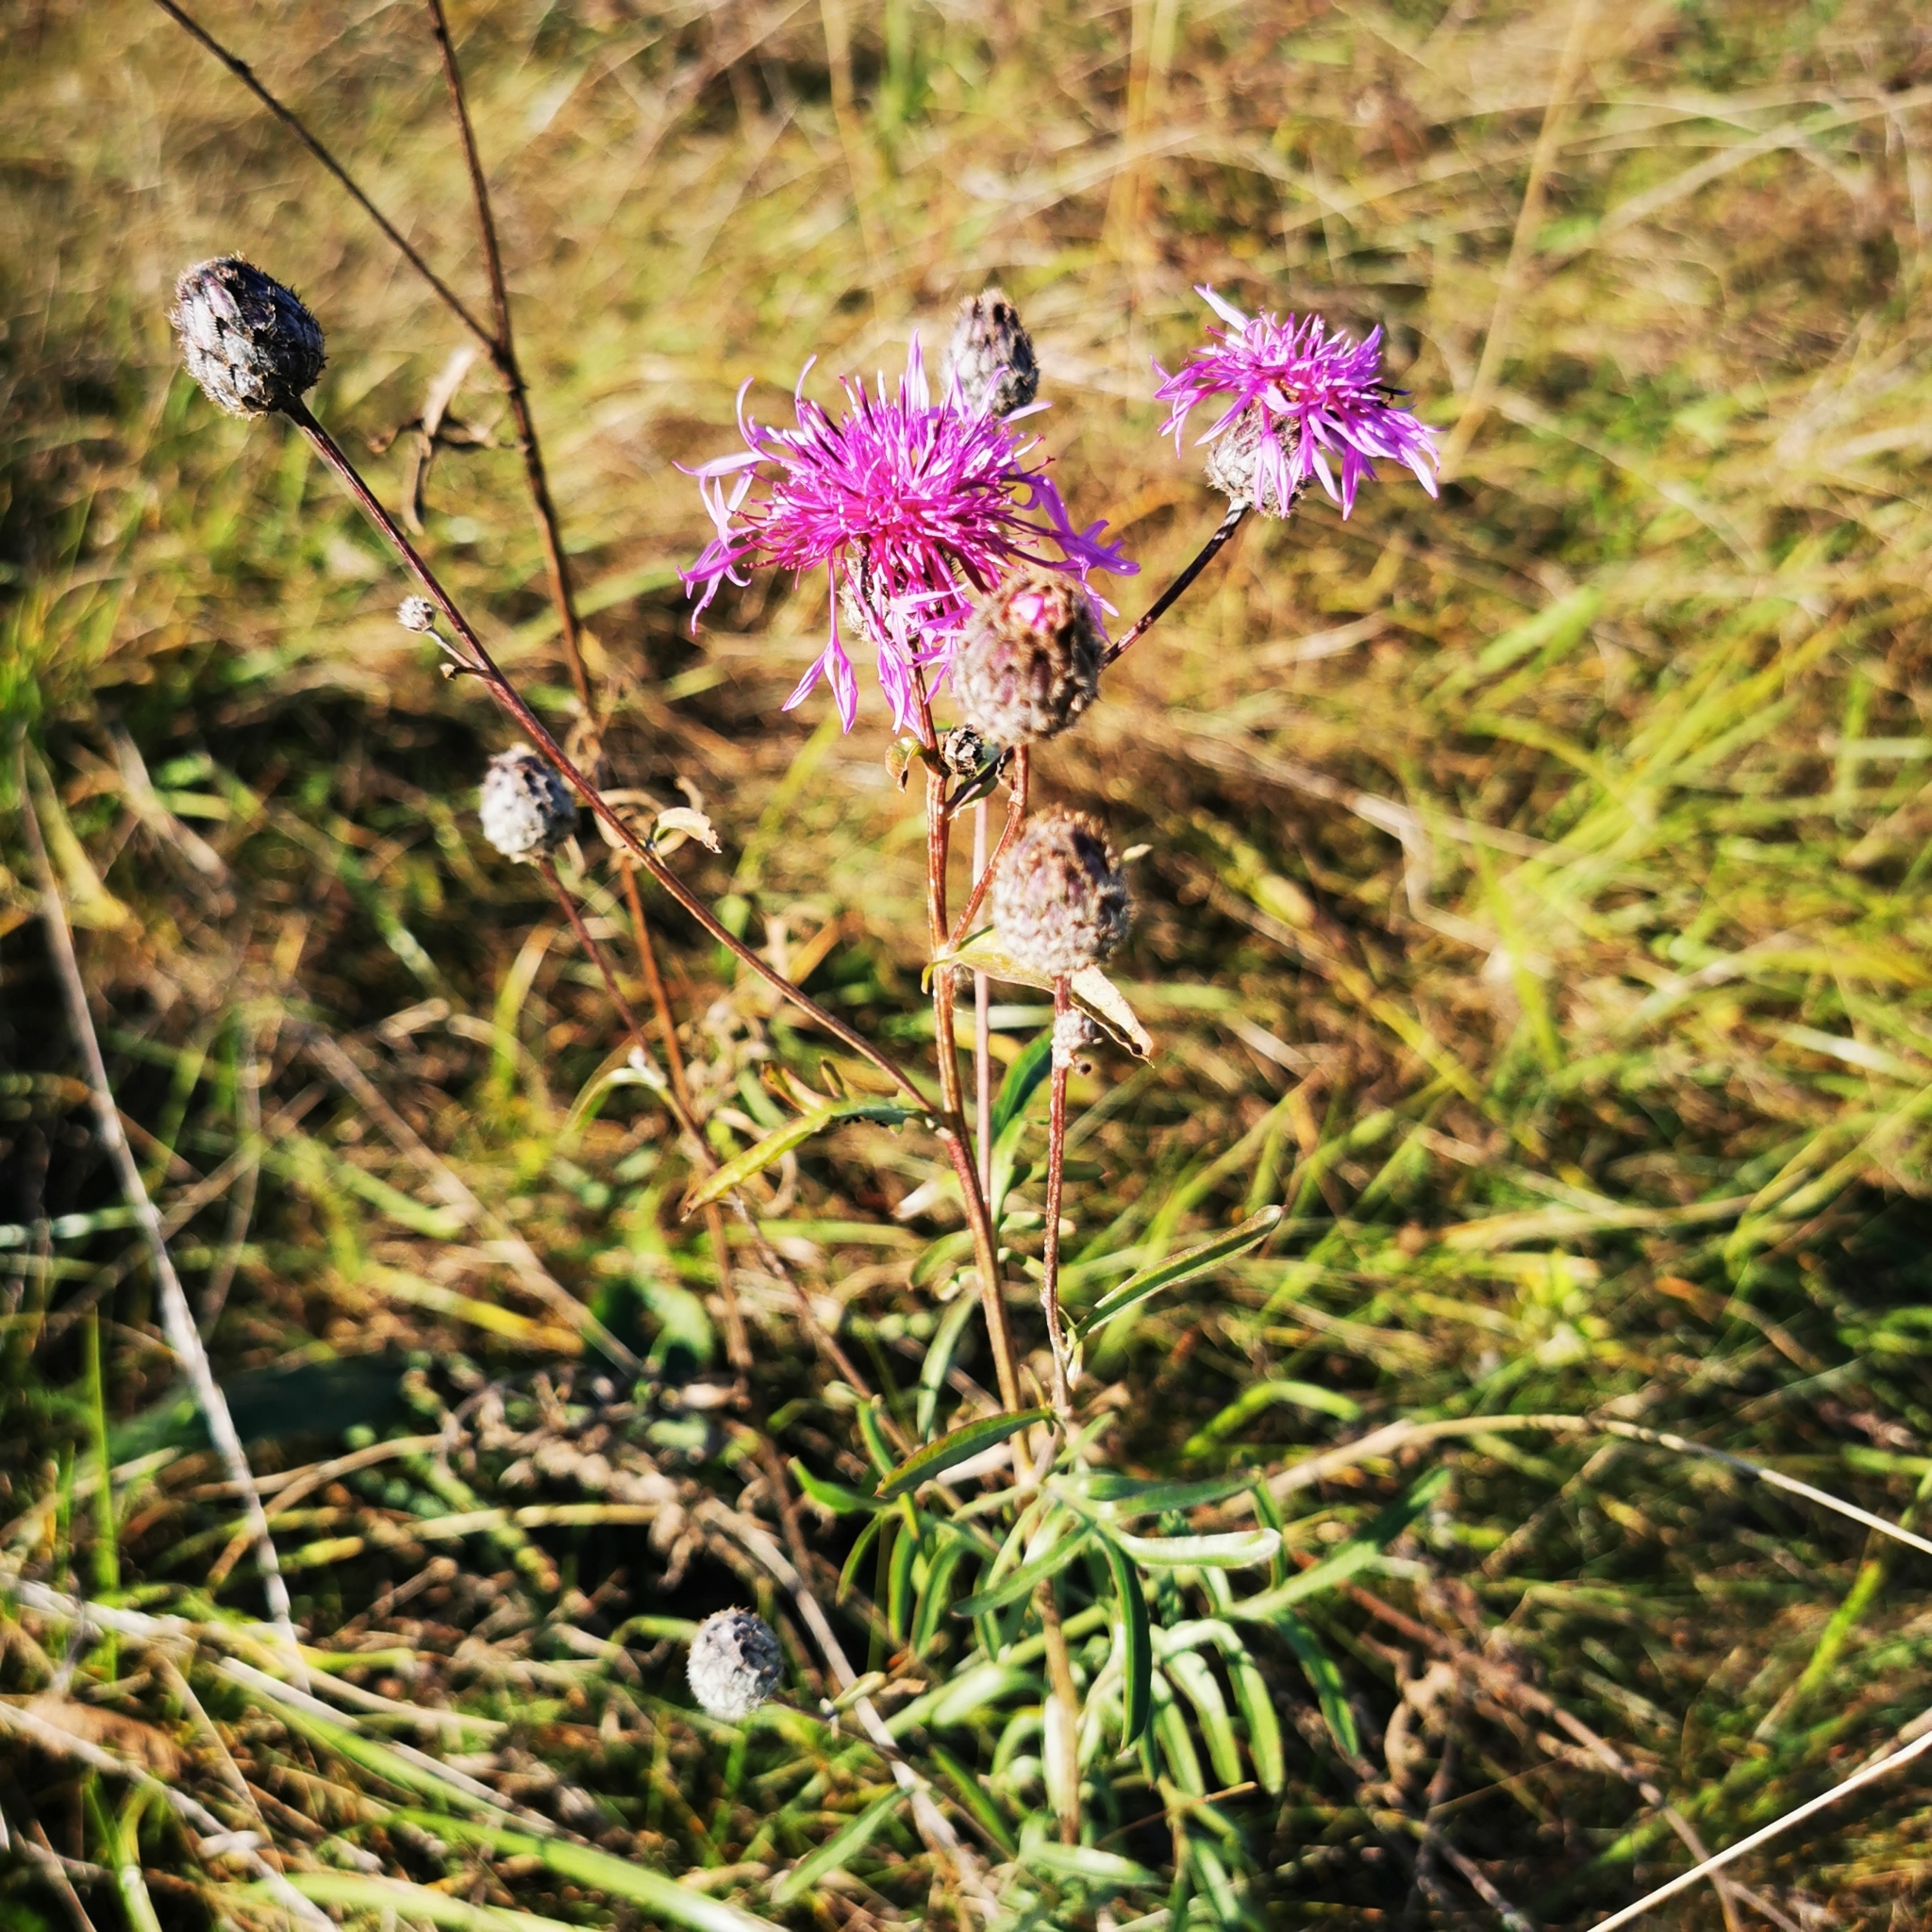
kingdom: Plantae
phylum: Tracheophyta
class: Magnoliopsida
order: Asterales
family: Asteraceae
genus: Centaurea
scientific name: Centaurea scabiosa
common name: Greater knapweed
